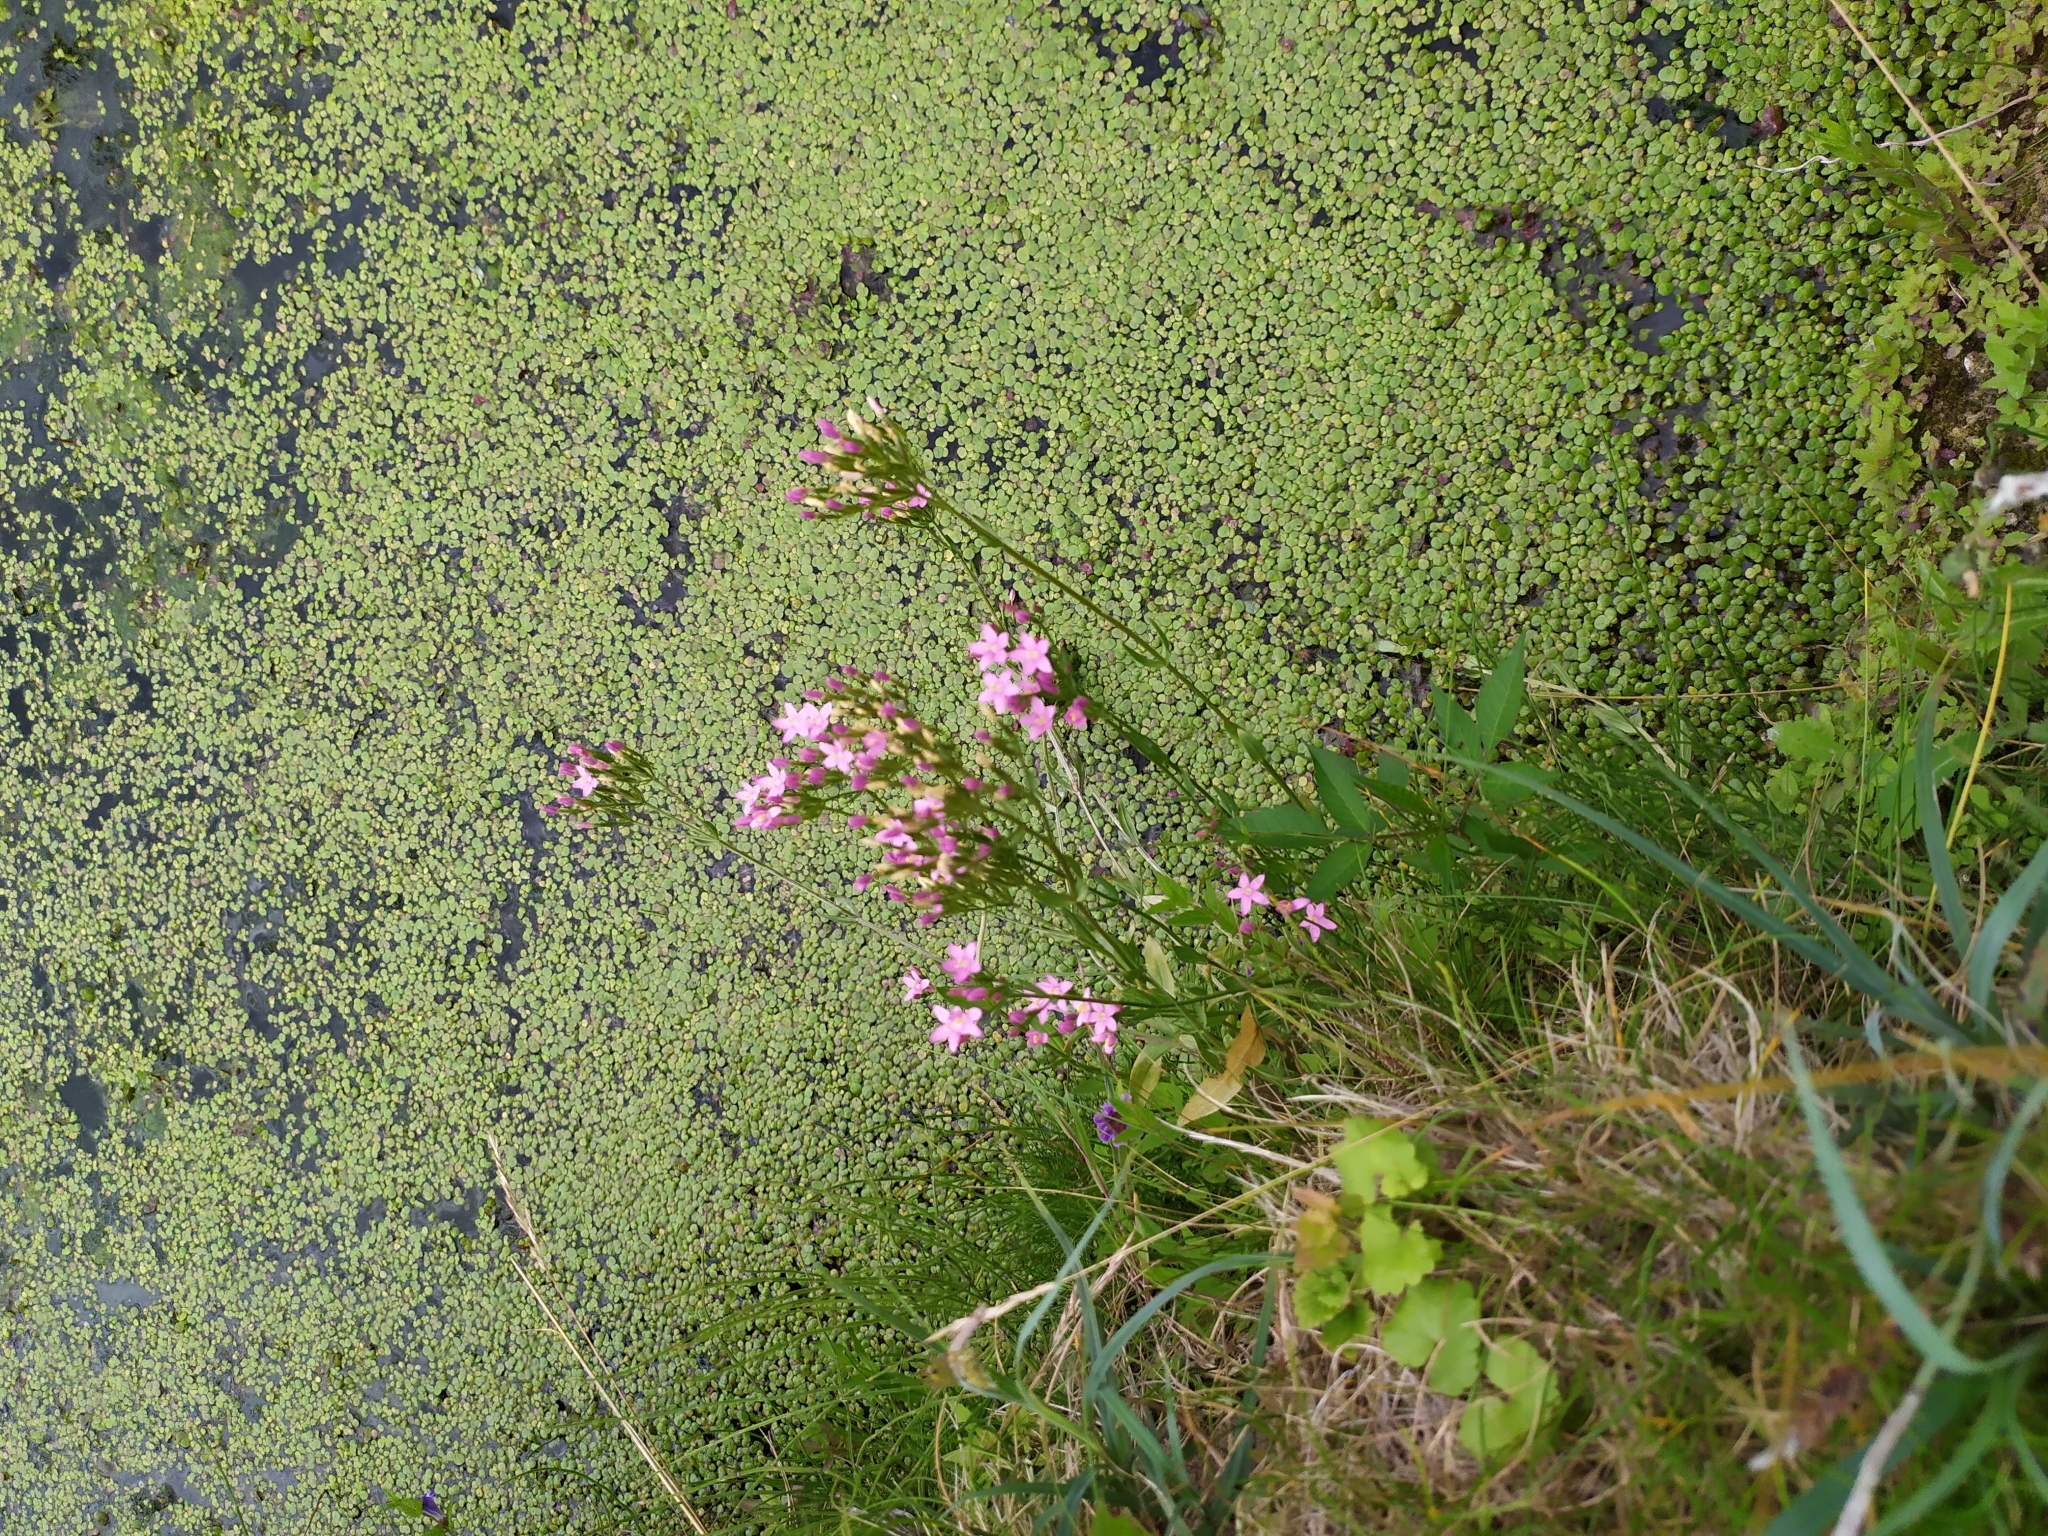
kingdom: Plantae
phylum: Tracheophyta
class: Magnoliopsida
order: Gentianales
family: Gentianaceae
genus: Centaurium
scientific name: Centaurium erythraea
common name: Common centaury
